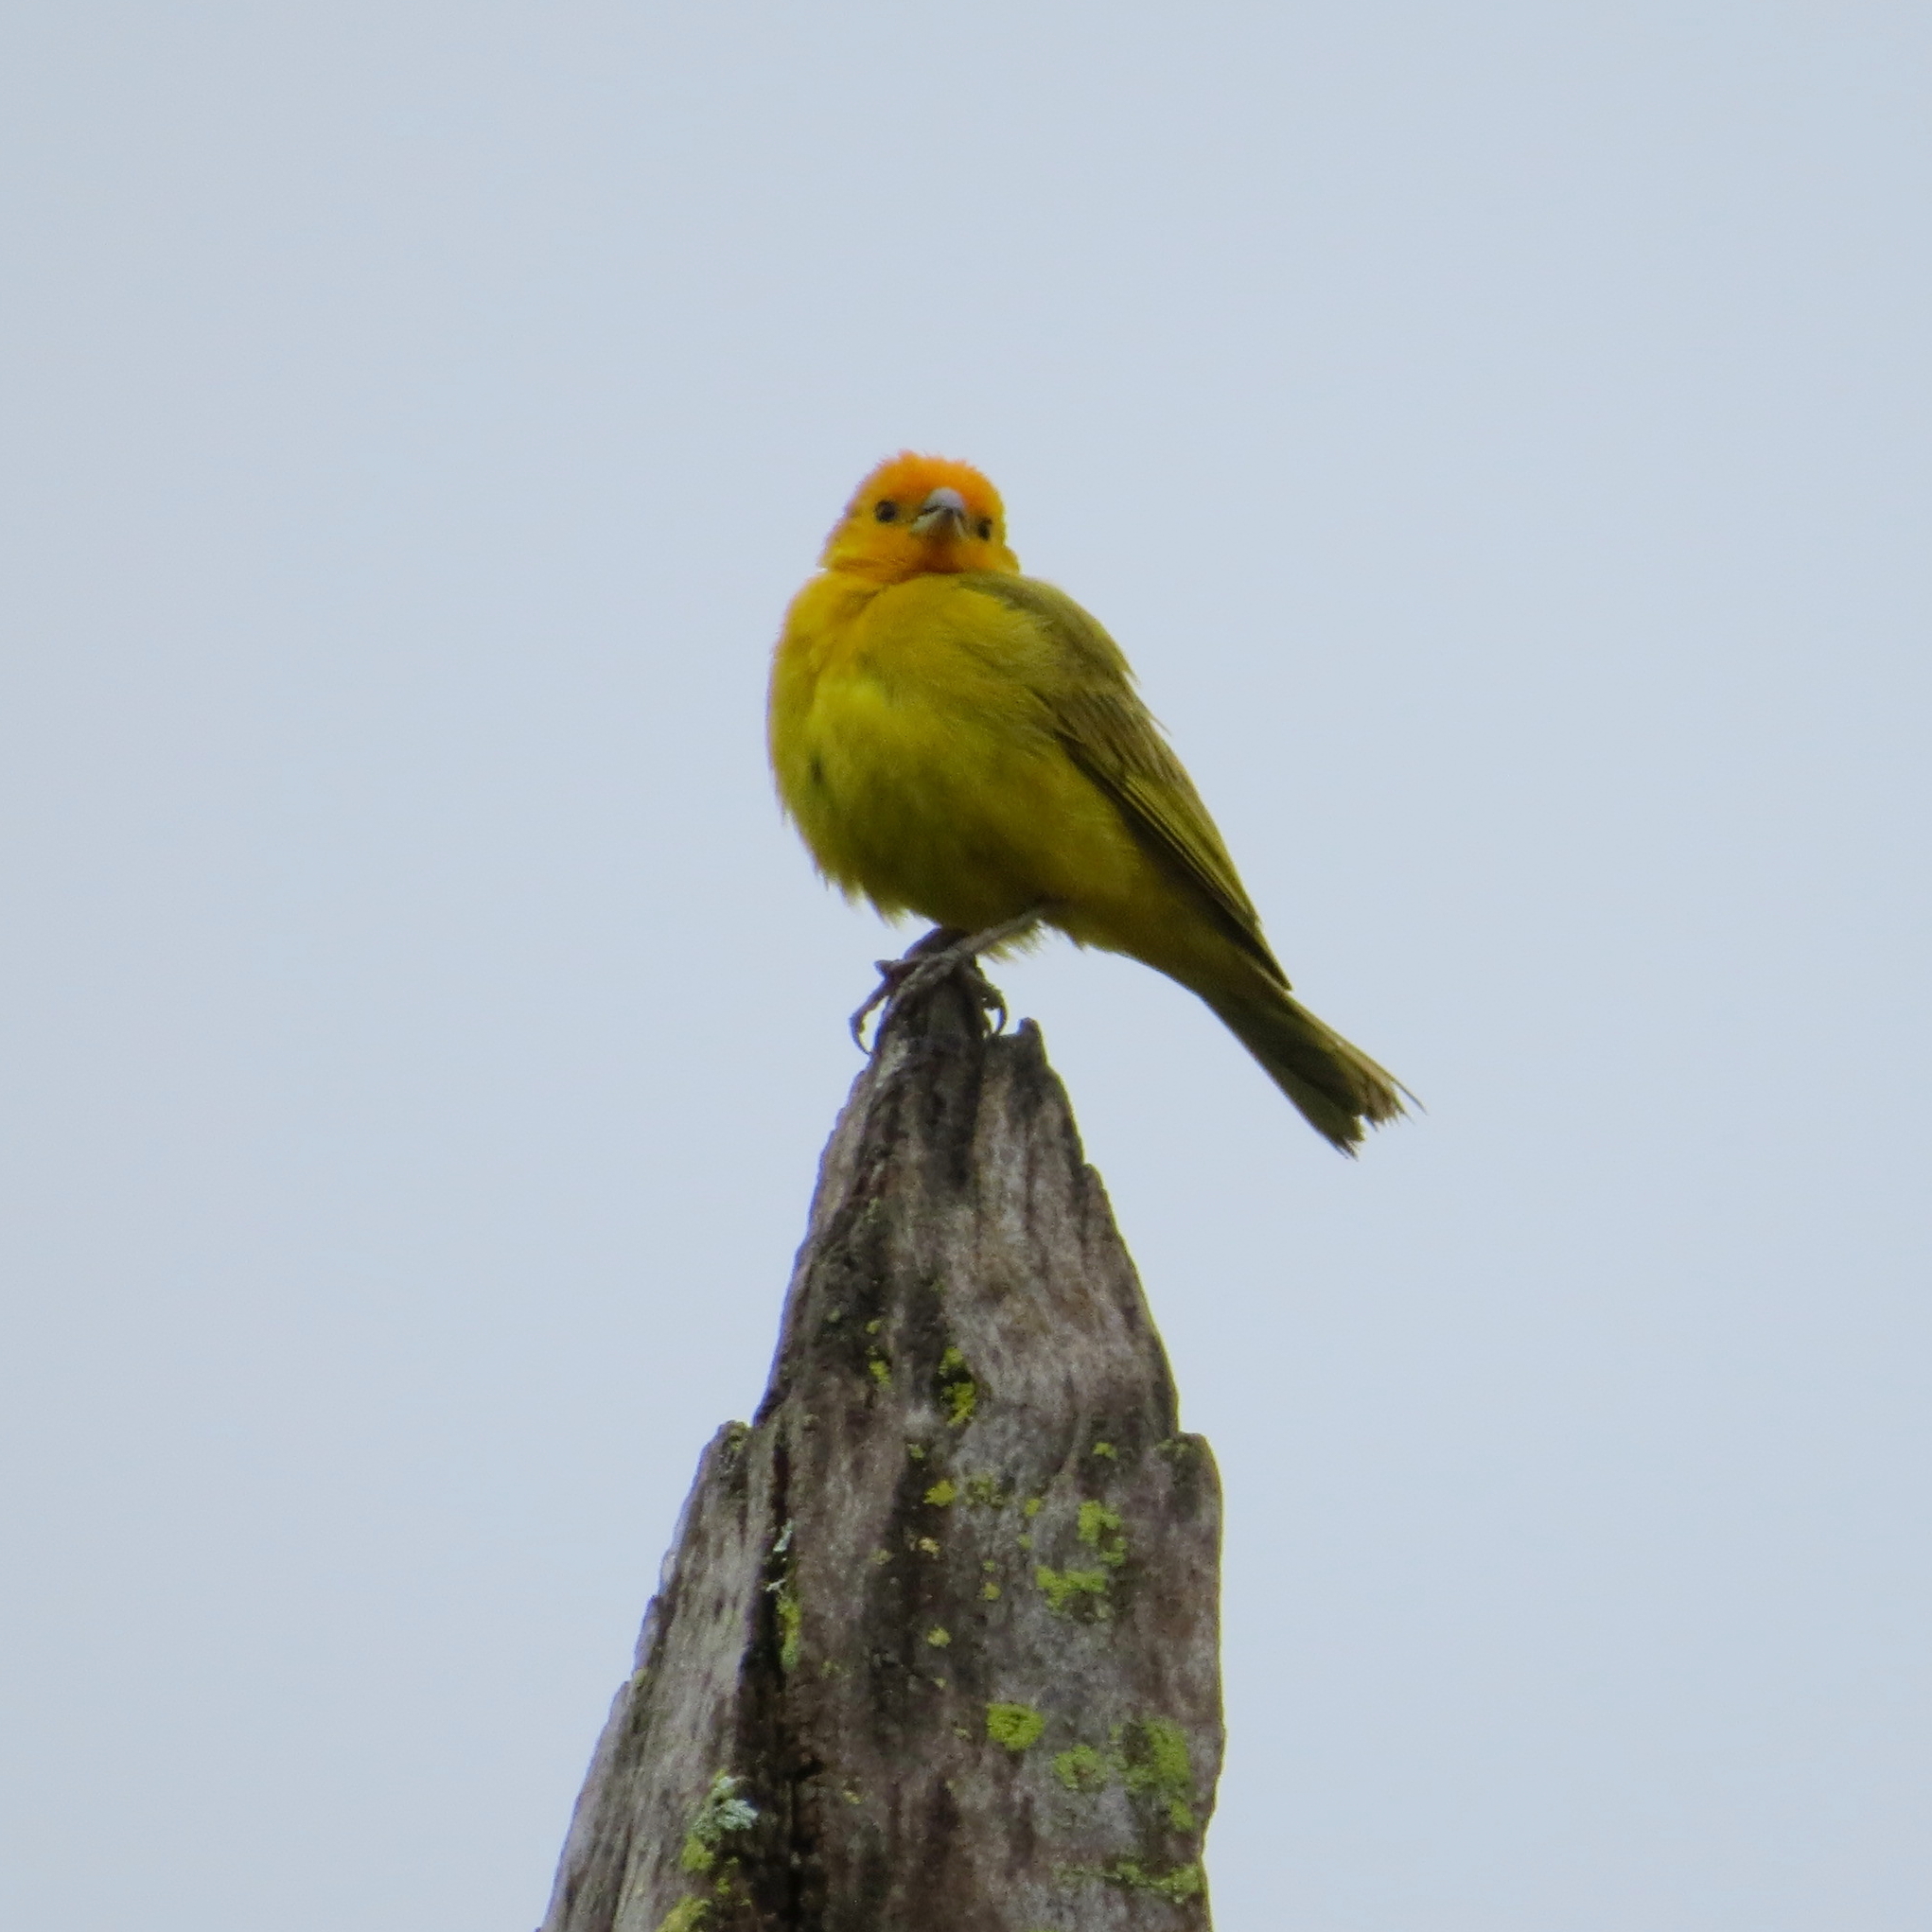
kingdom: Animalia
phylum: Chordata
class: Aves
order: Passeriformes
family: Thraupidae
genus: Sicalis
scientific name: Sicalis flaveola
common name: Saffron finch
